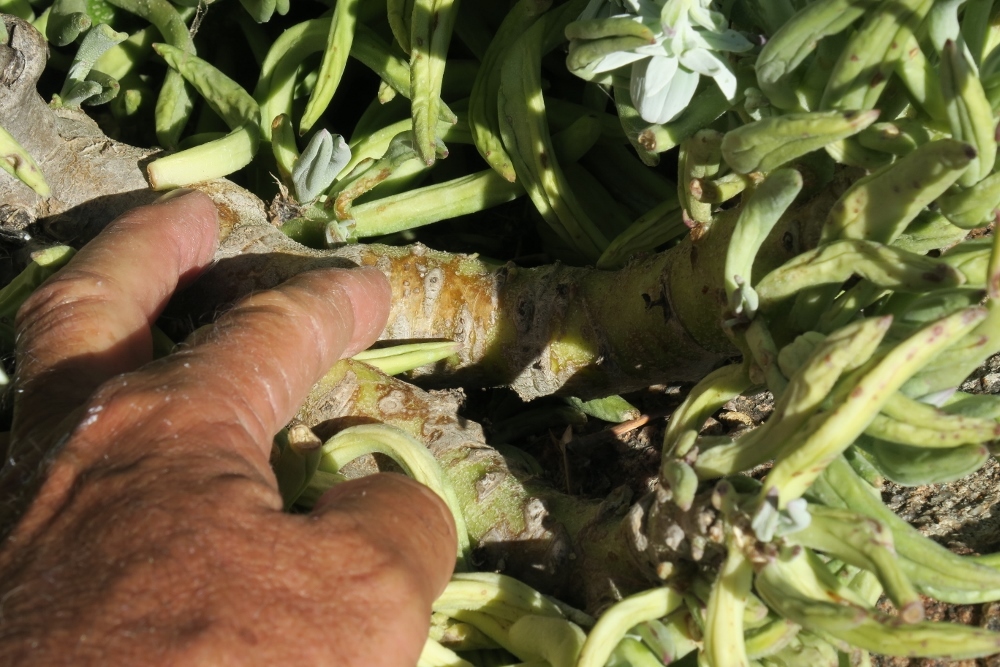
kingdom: Plantae
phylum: Tracheophyta
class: Magnoliopsida
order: Asterales
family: Asteraceae
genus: Kleinia
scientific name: Kleinia cephalophora
